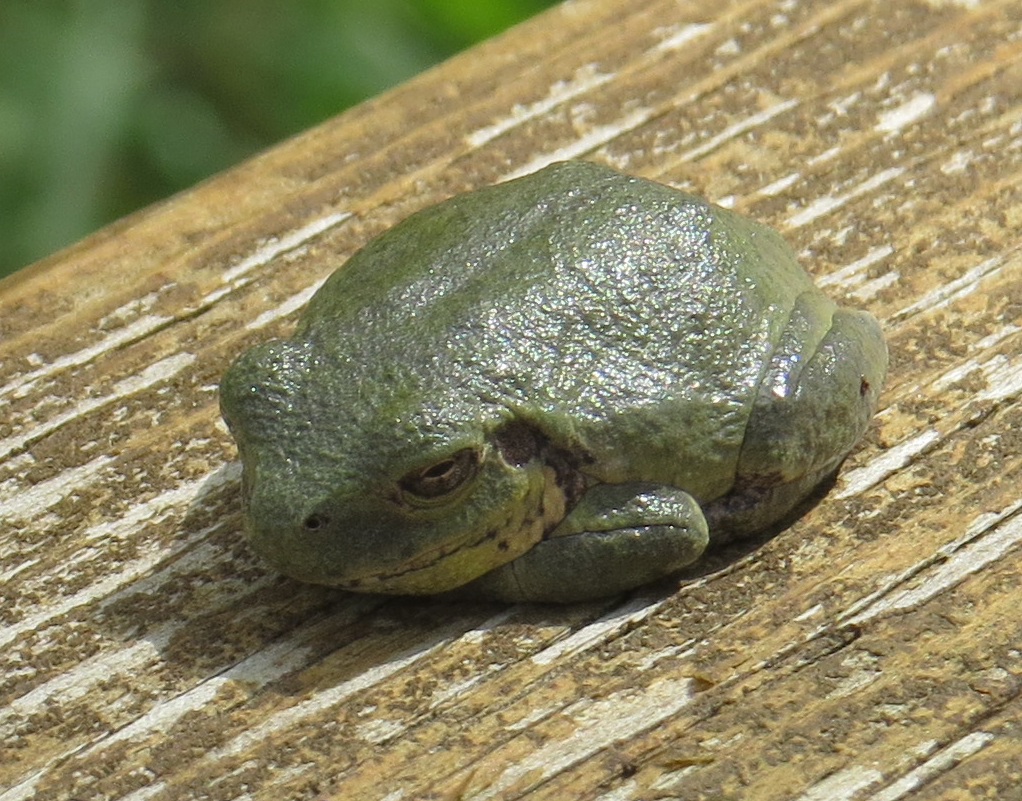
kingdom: Animalia
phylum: Chordata
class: Amphibia
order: Anura
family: Hylidae
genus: Hyla
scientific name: Hyla
